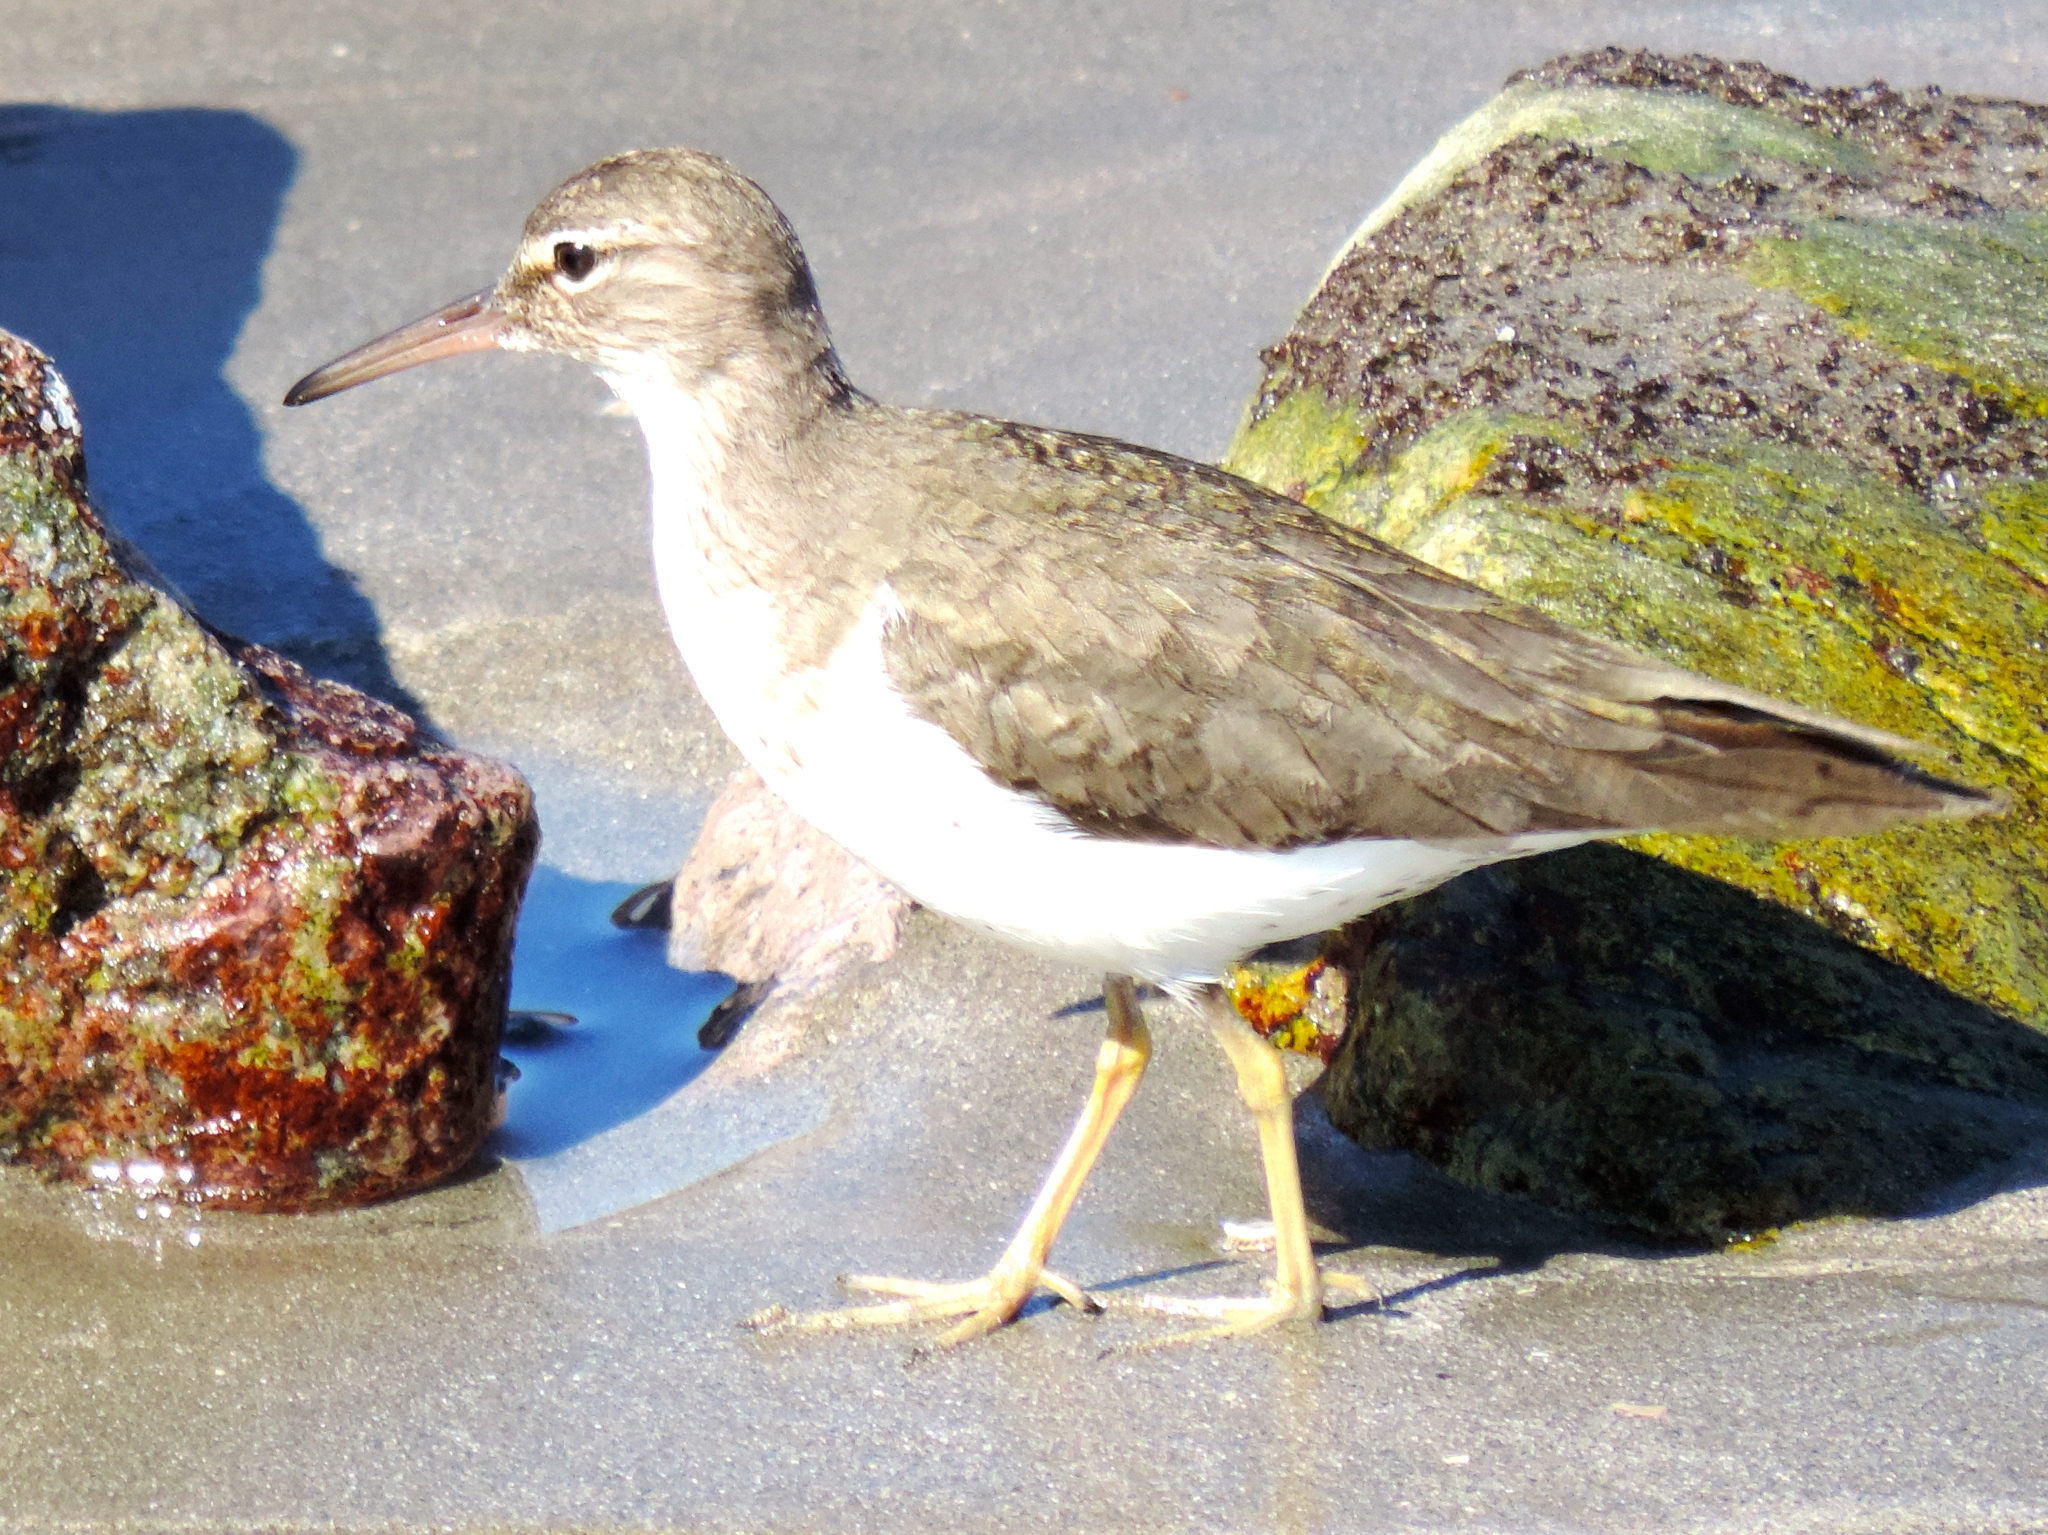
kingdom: Animalia
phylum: Chordata
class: Aves
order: Charadriiformes
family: Scolopacidae
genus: Actitis
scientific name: Actitis macularius
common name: Spotted sandpiper
